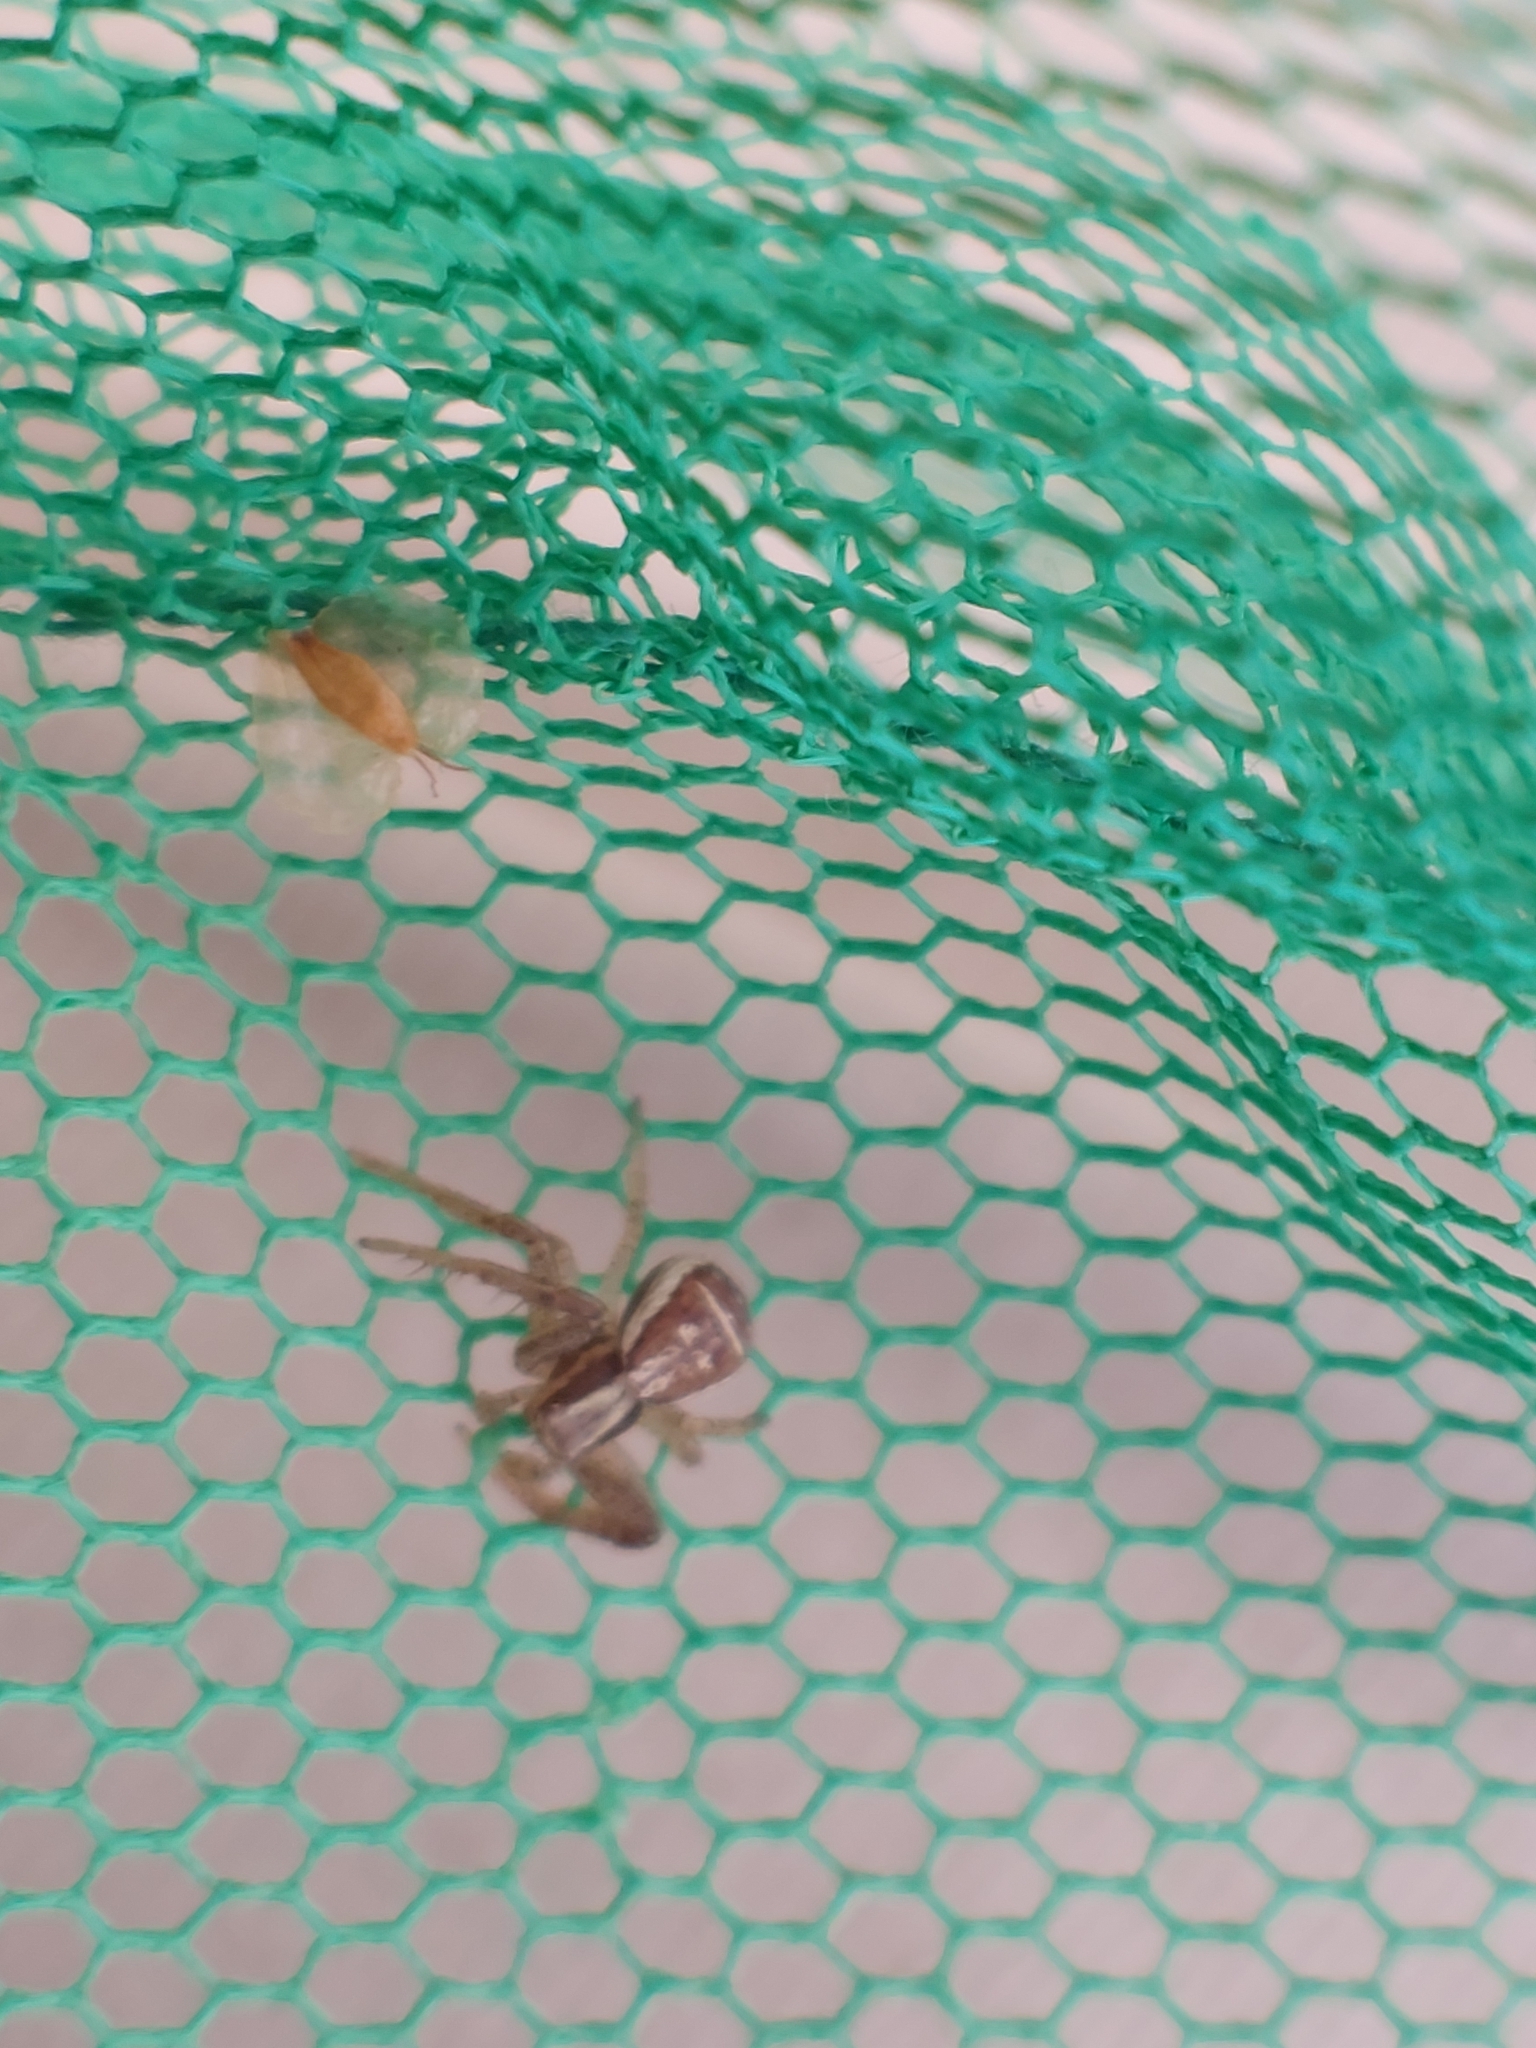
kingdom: Animalia
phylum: Arthropoda
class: Arachnida
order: Araneae
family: Thomisidae
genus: Xysticus
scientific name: Xysticus ulmi
